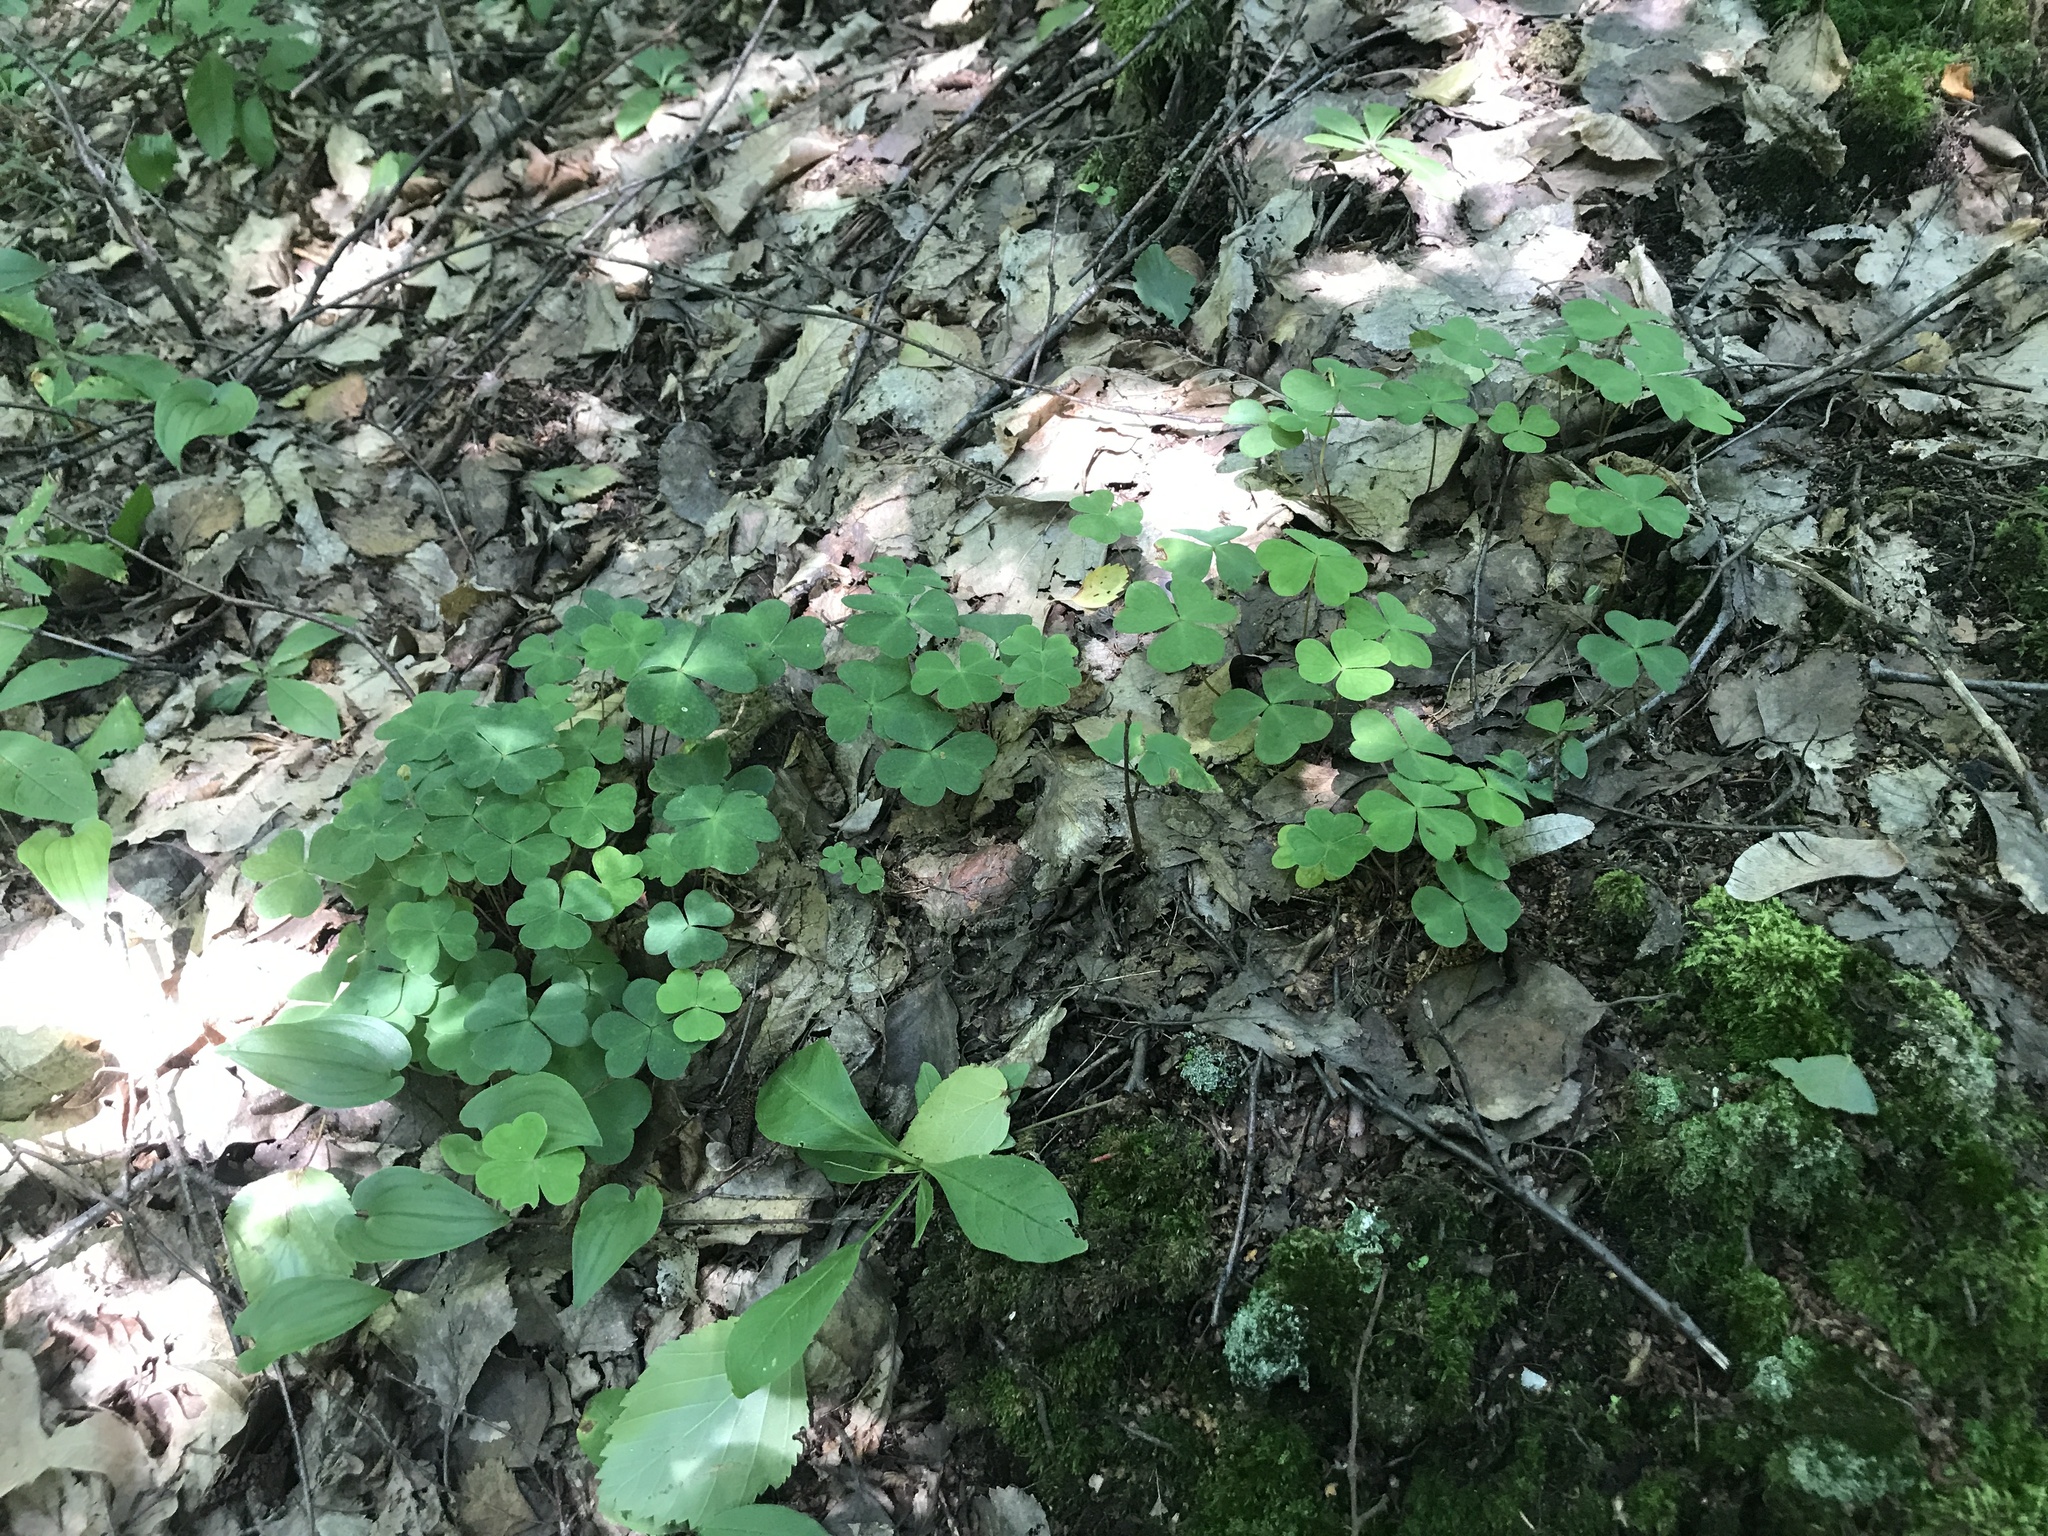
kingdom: Plantae
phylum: Tracheophyta
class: Magnoliopsida
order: Oxalidales
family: Oxalidaceae
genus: Oxalis
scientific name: Oxalis acetosella
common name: Wood-sorrel
